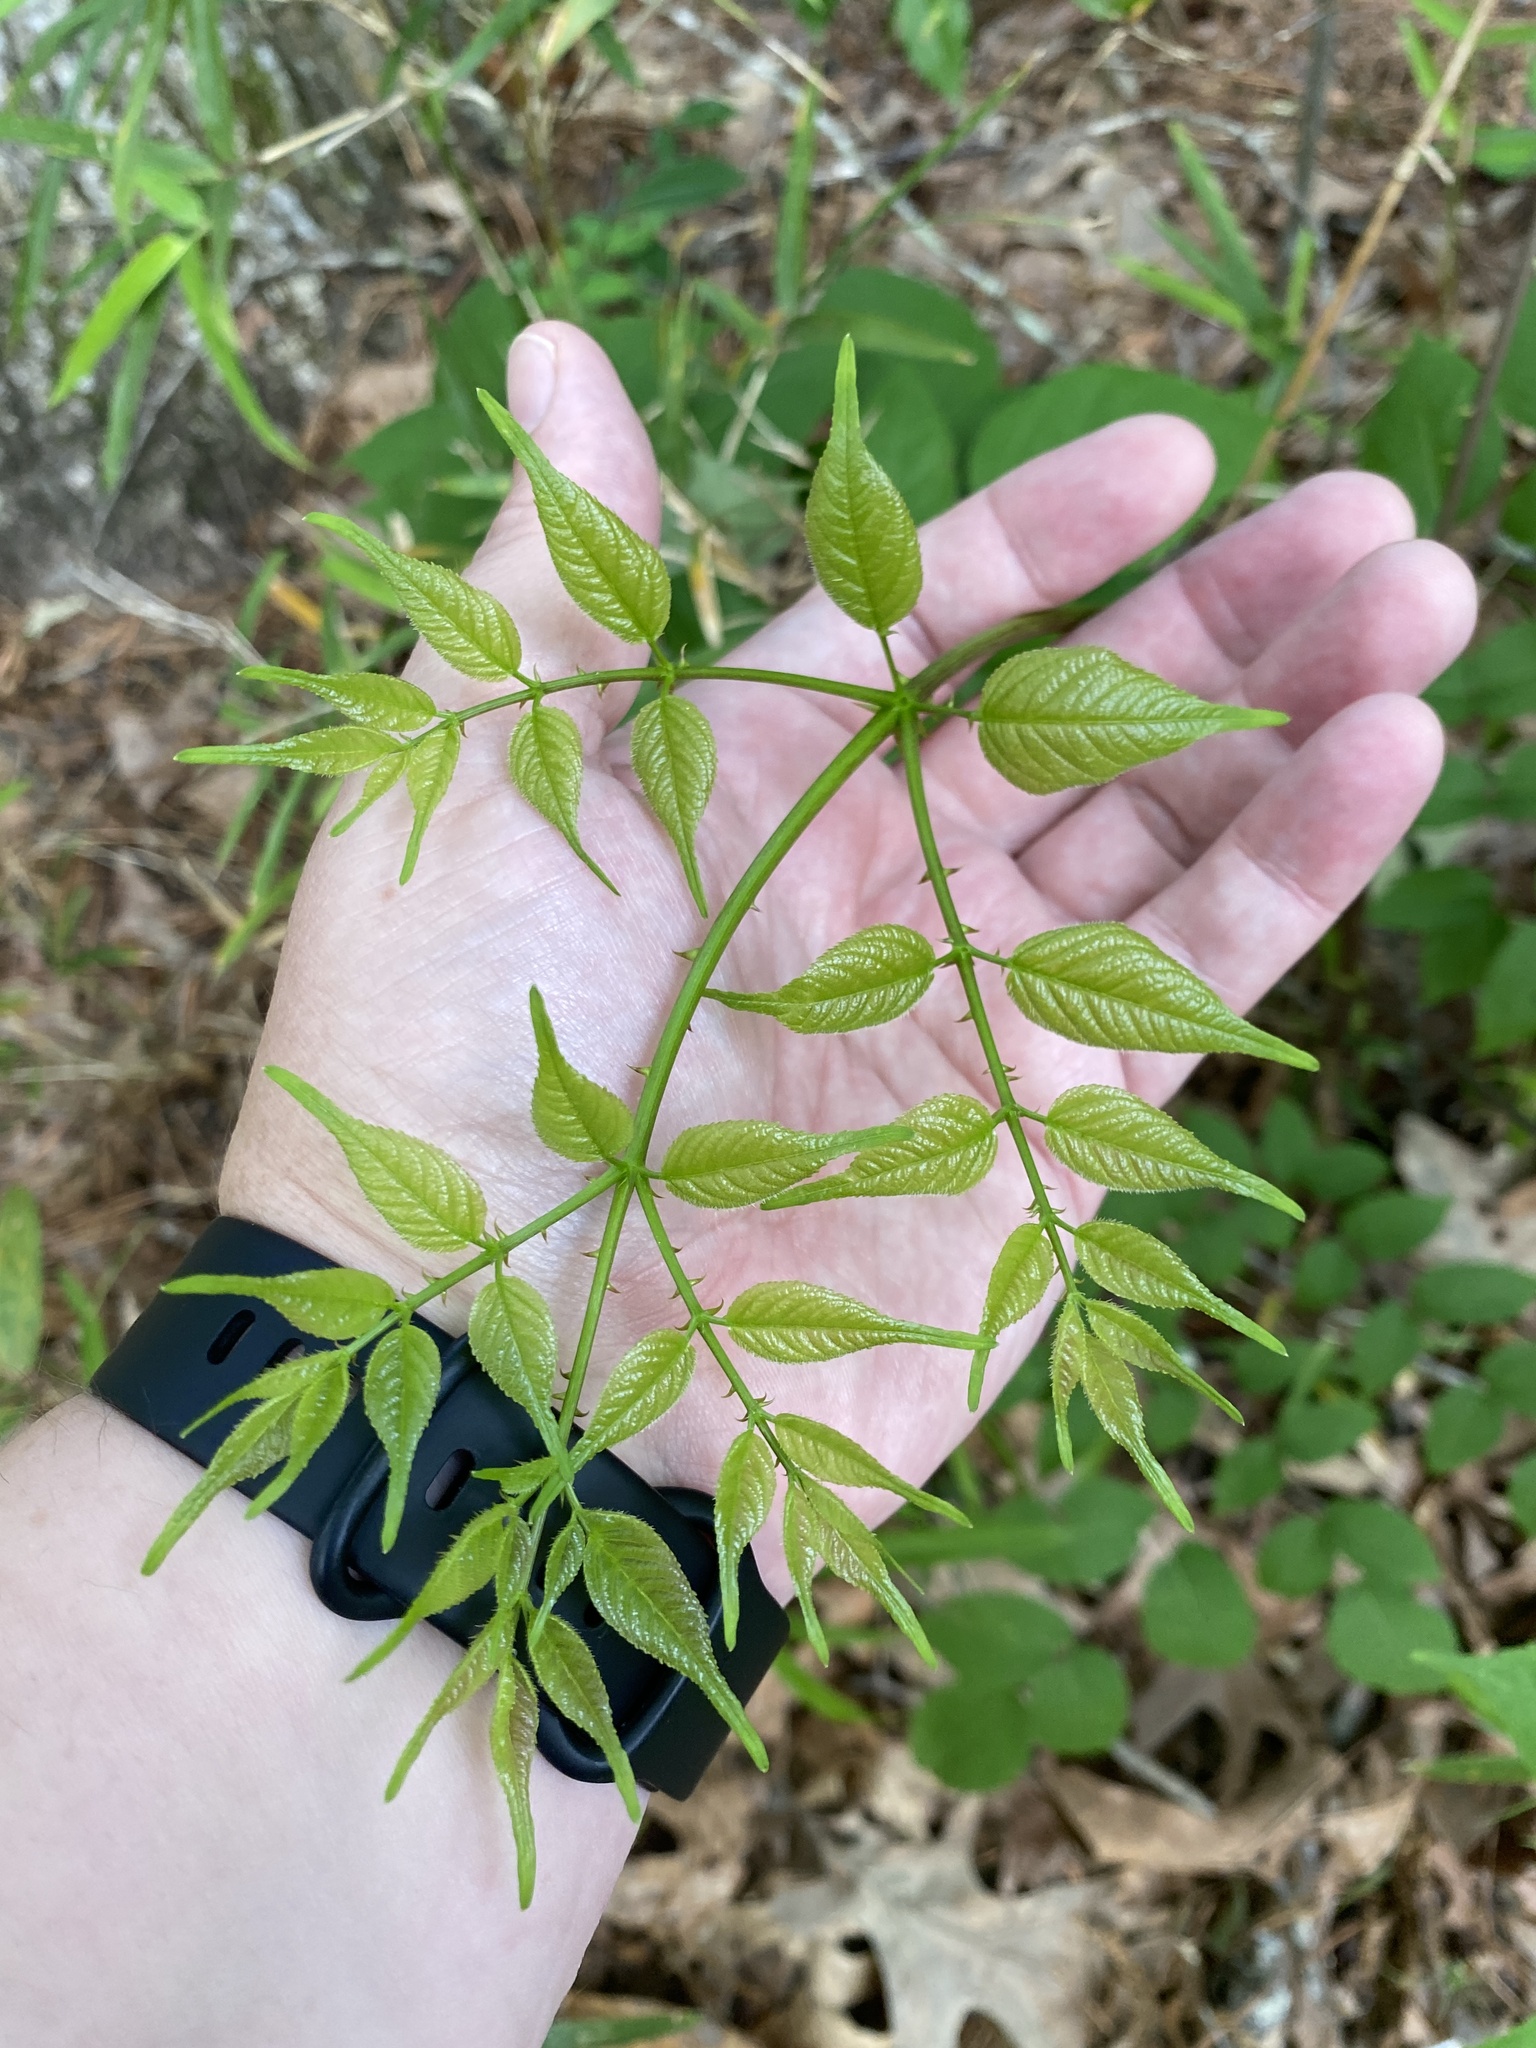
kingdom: Plantae
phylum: Tracheophyta
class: Magnoliopsida
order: Apiales
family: Araliaceae
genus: Aralia
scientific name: Aralia spinosa
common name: Hercules'-club
